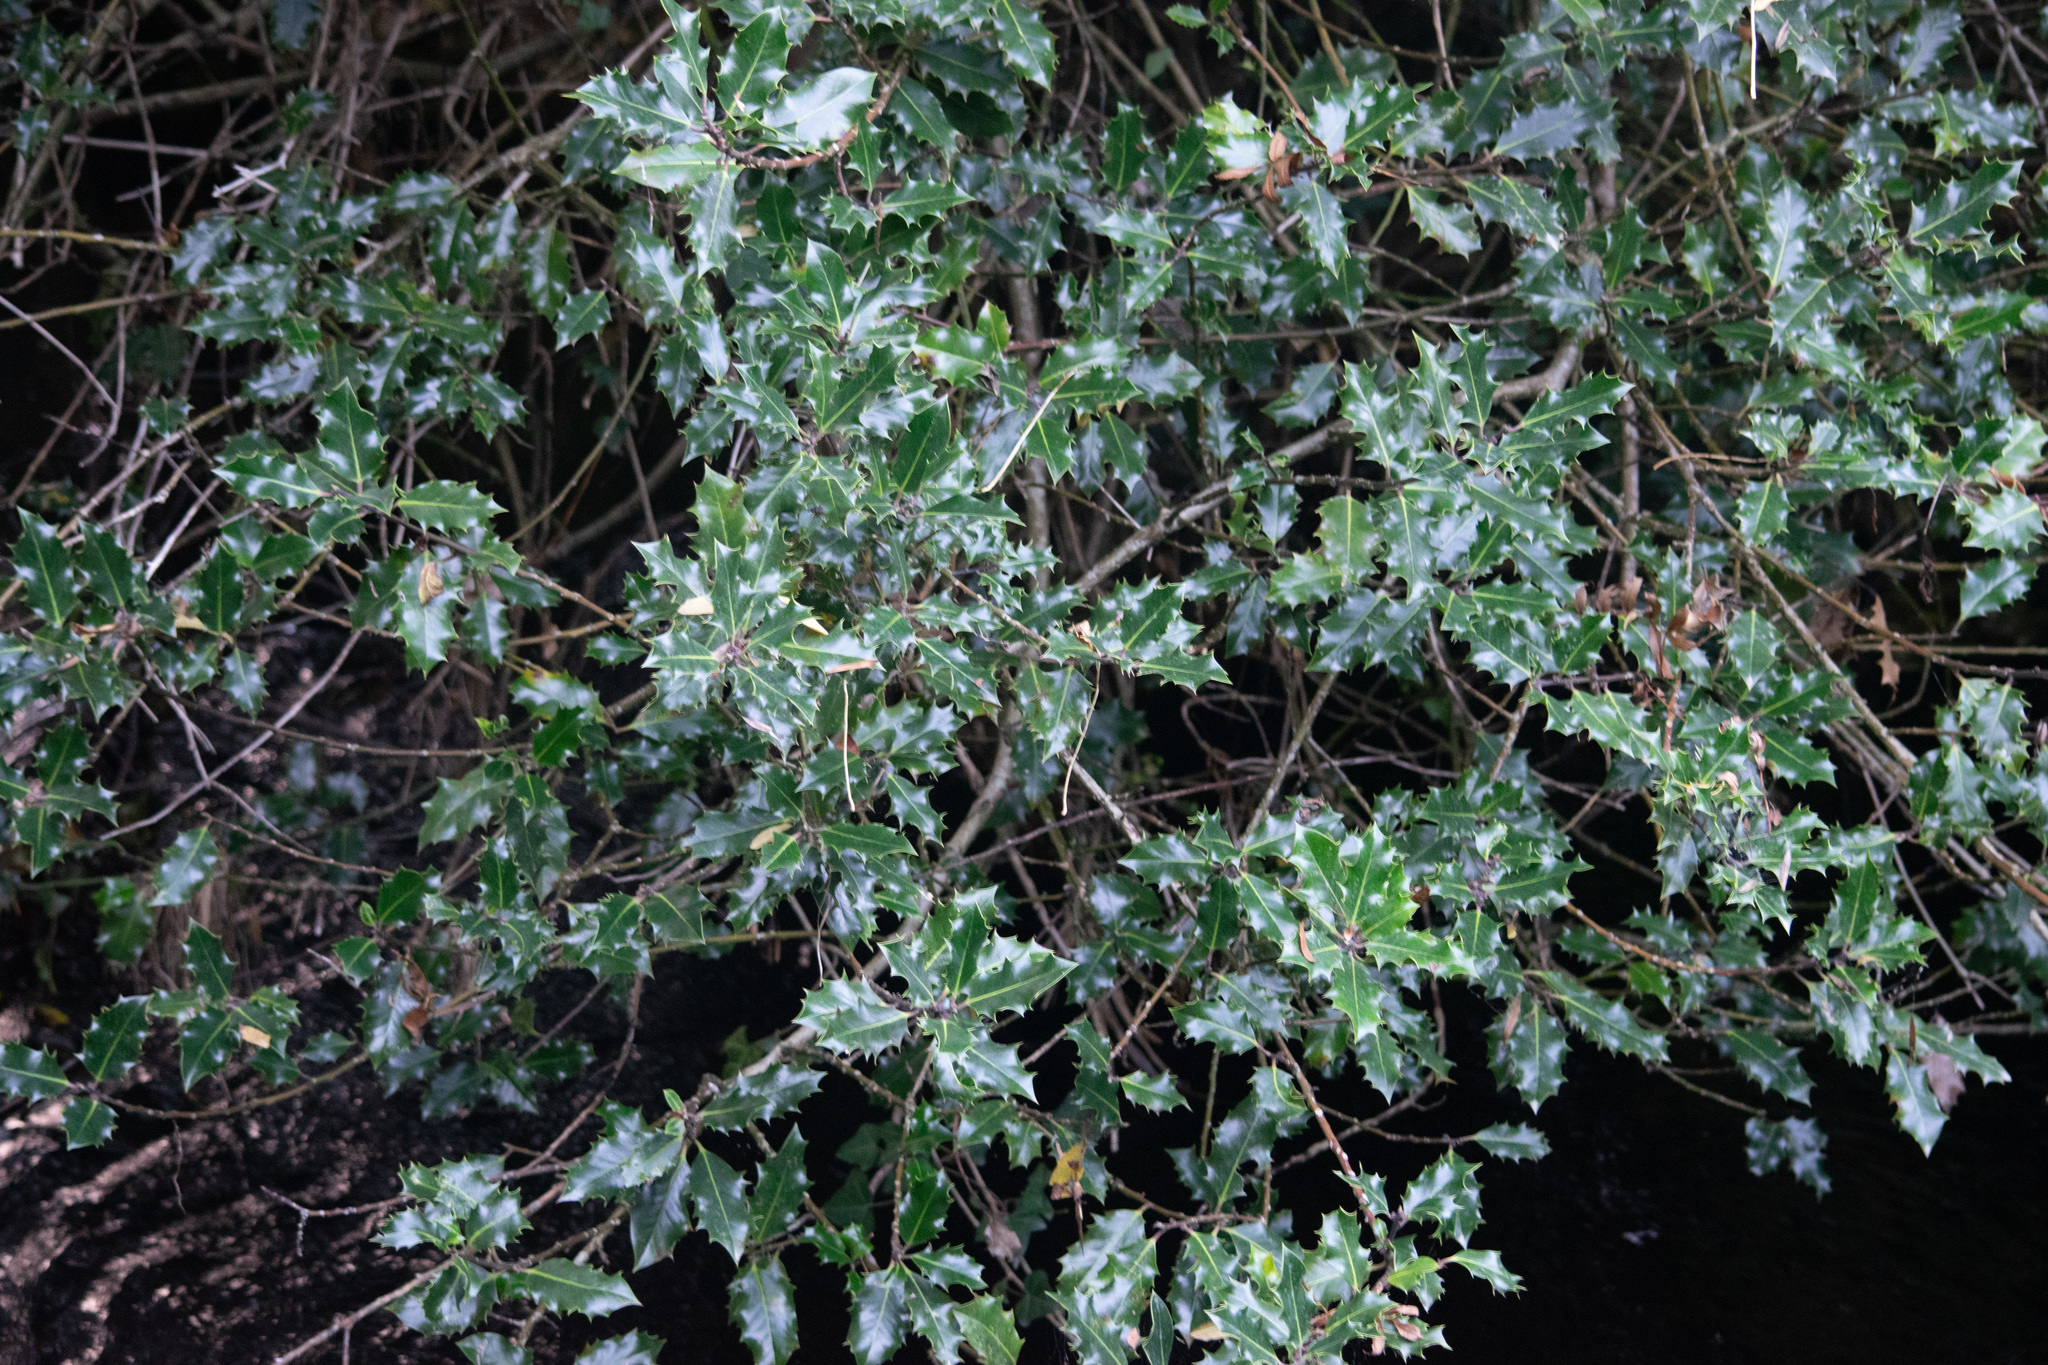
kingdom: Plantae
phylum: Tracheophyta
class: Magnoliopsida
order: Aquifoliales
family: Aquifoliaceae
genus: Ilex
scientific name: Ilex aquifolium
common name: English holly
